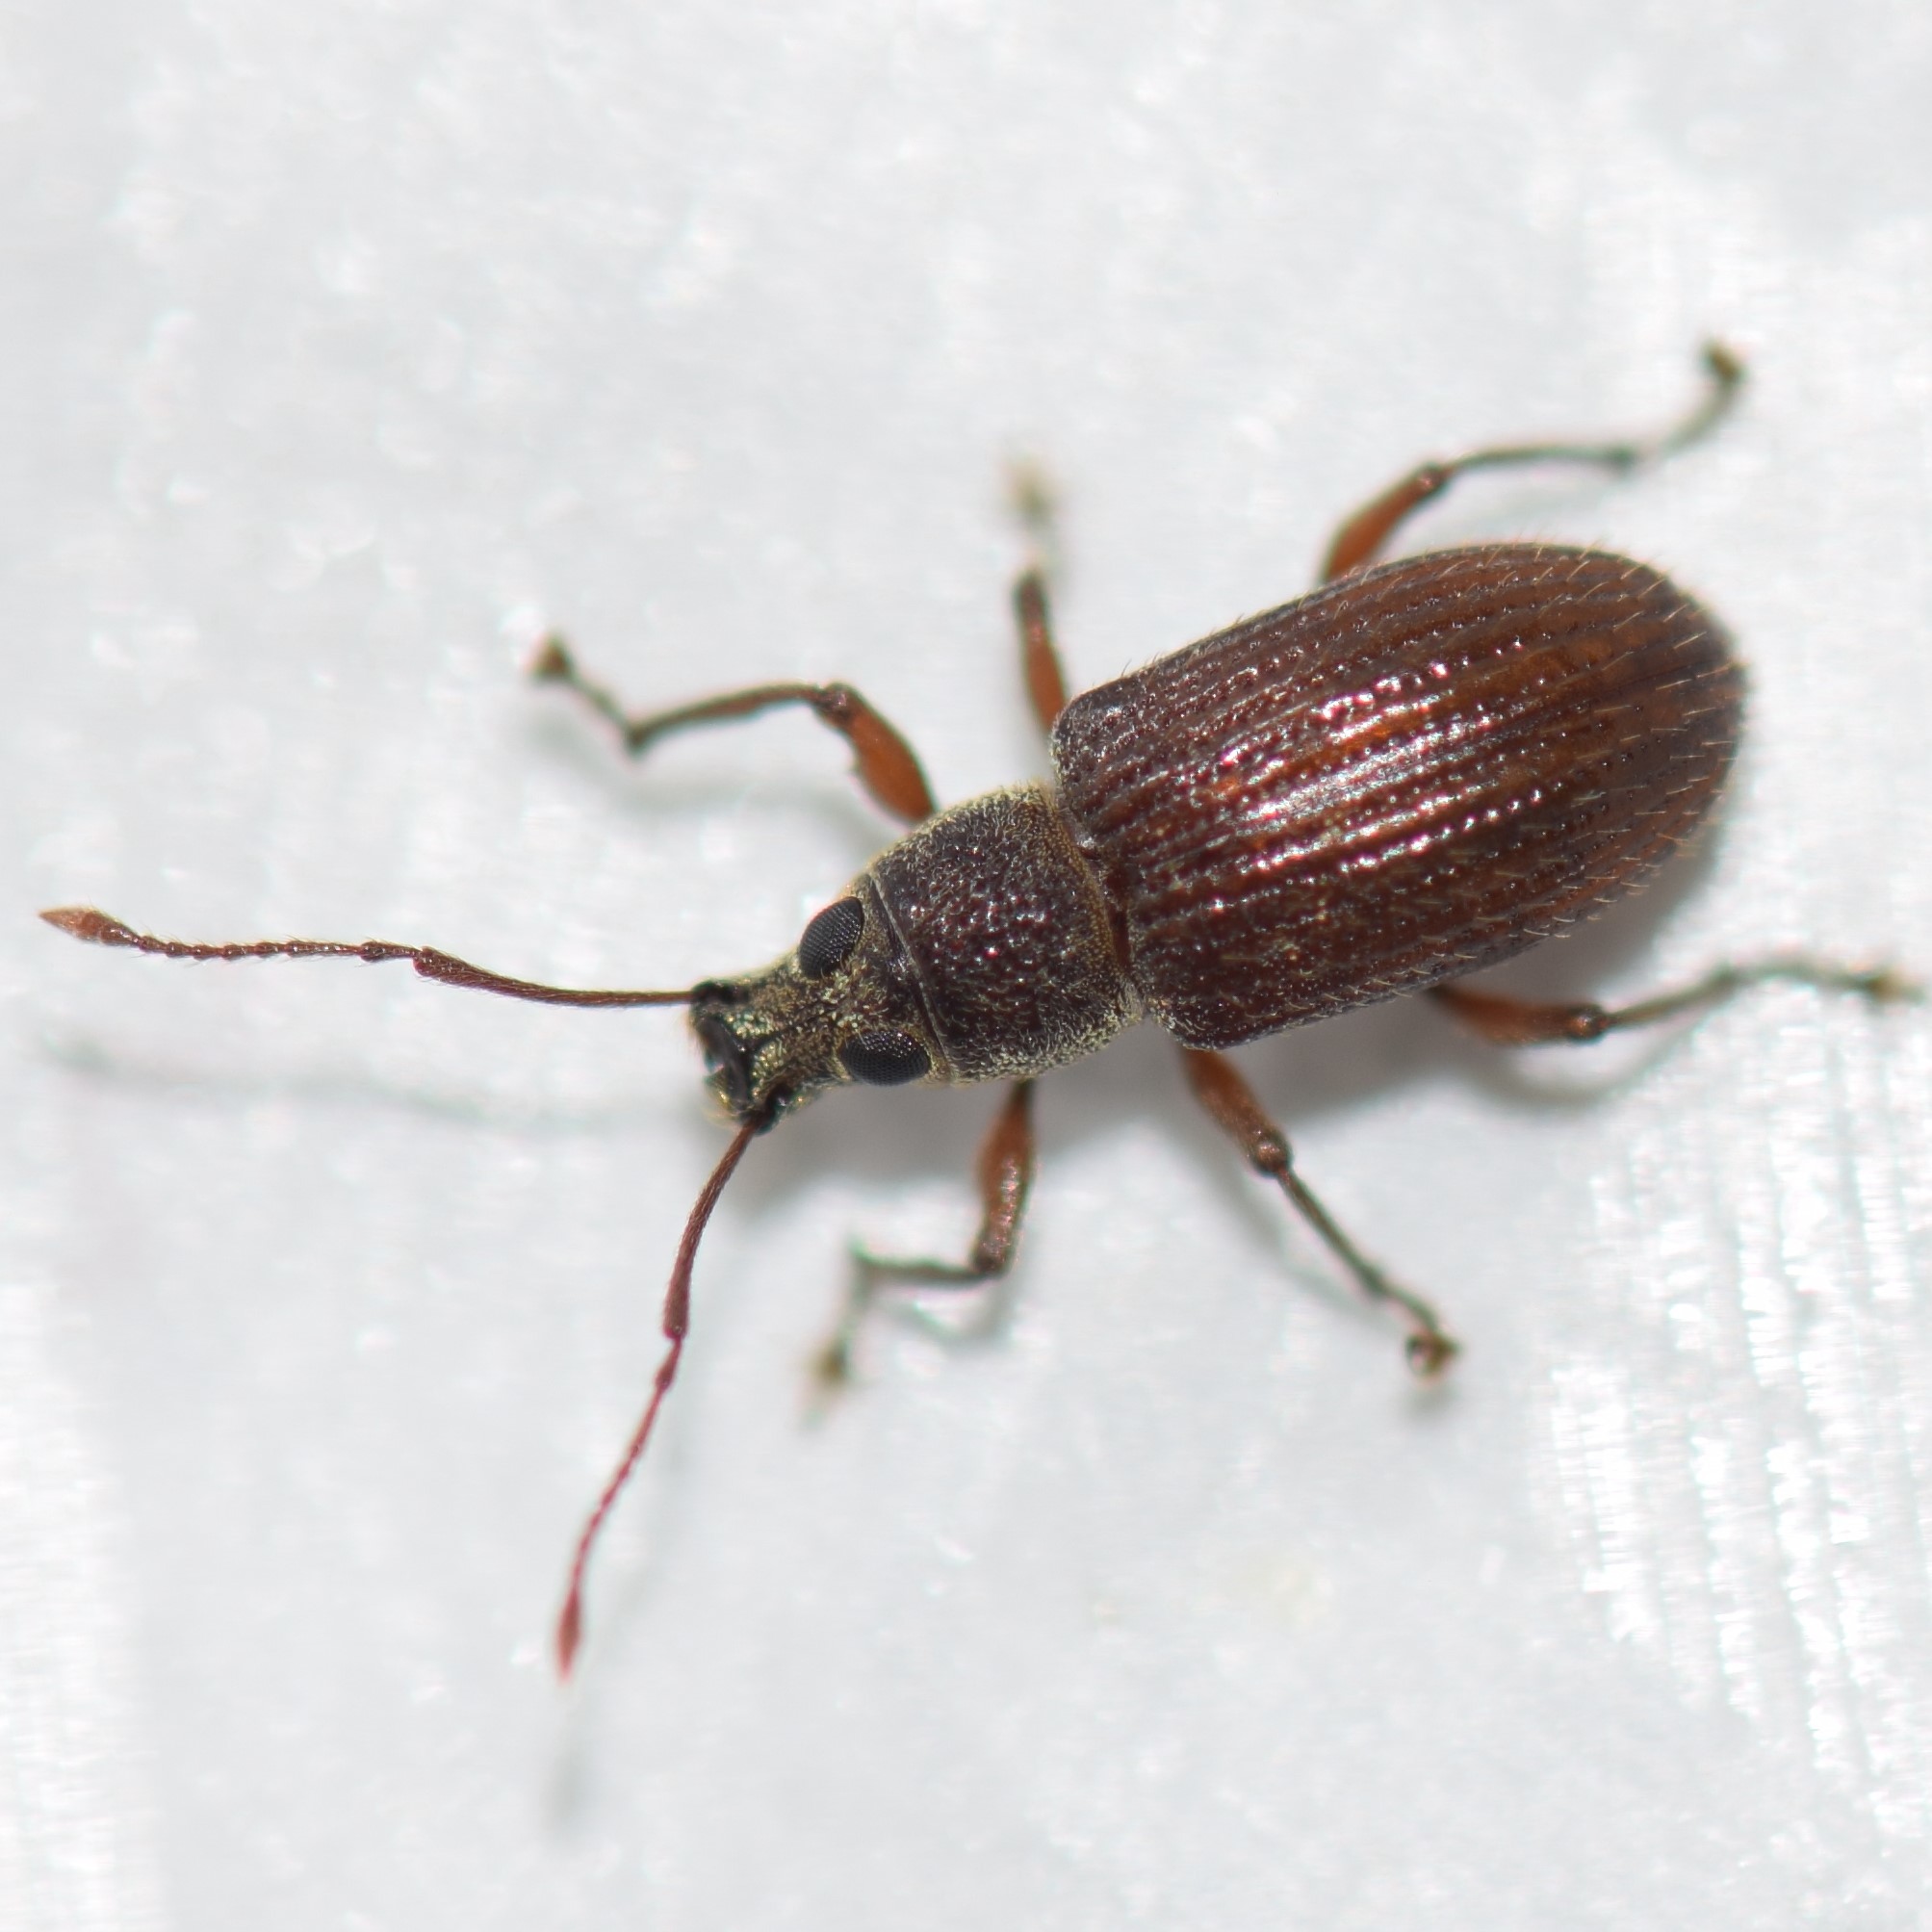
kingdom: Animalia
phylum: Arthropoda
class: Insecta
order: Coleoptera
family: Curculionidae
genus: Cyrtepistomus
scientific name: Cyrtepistomus castaneus
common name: Weevil
